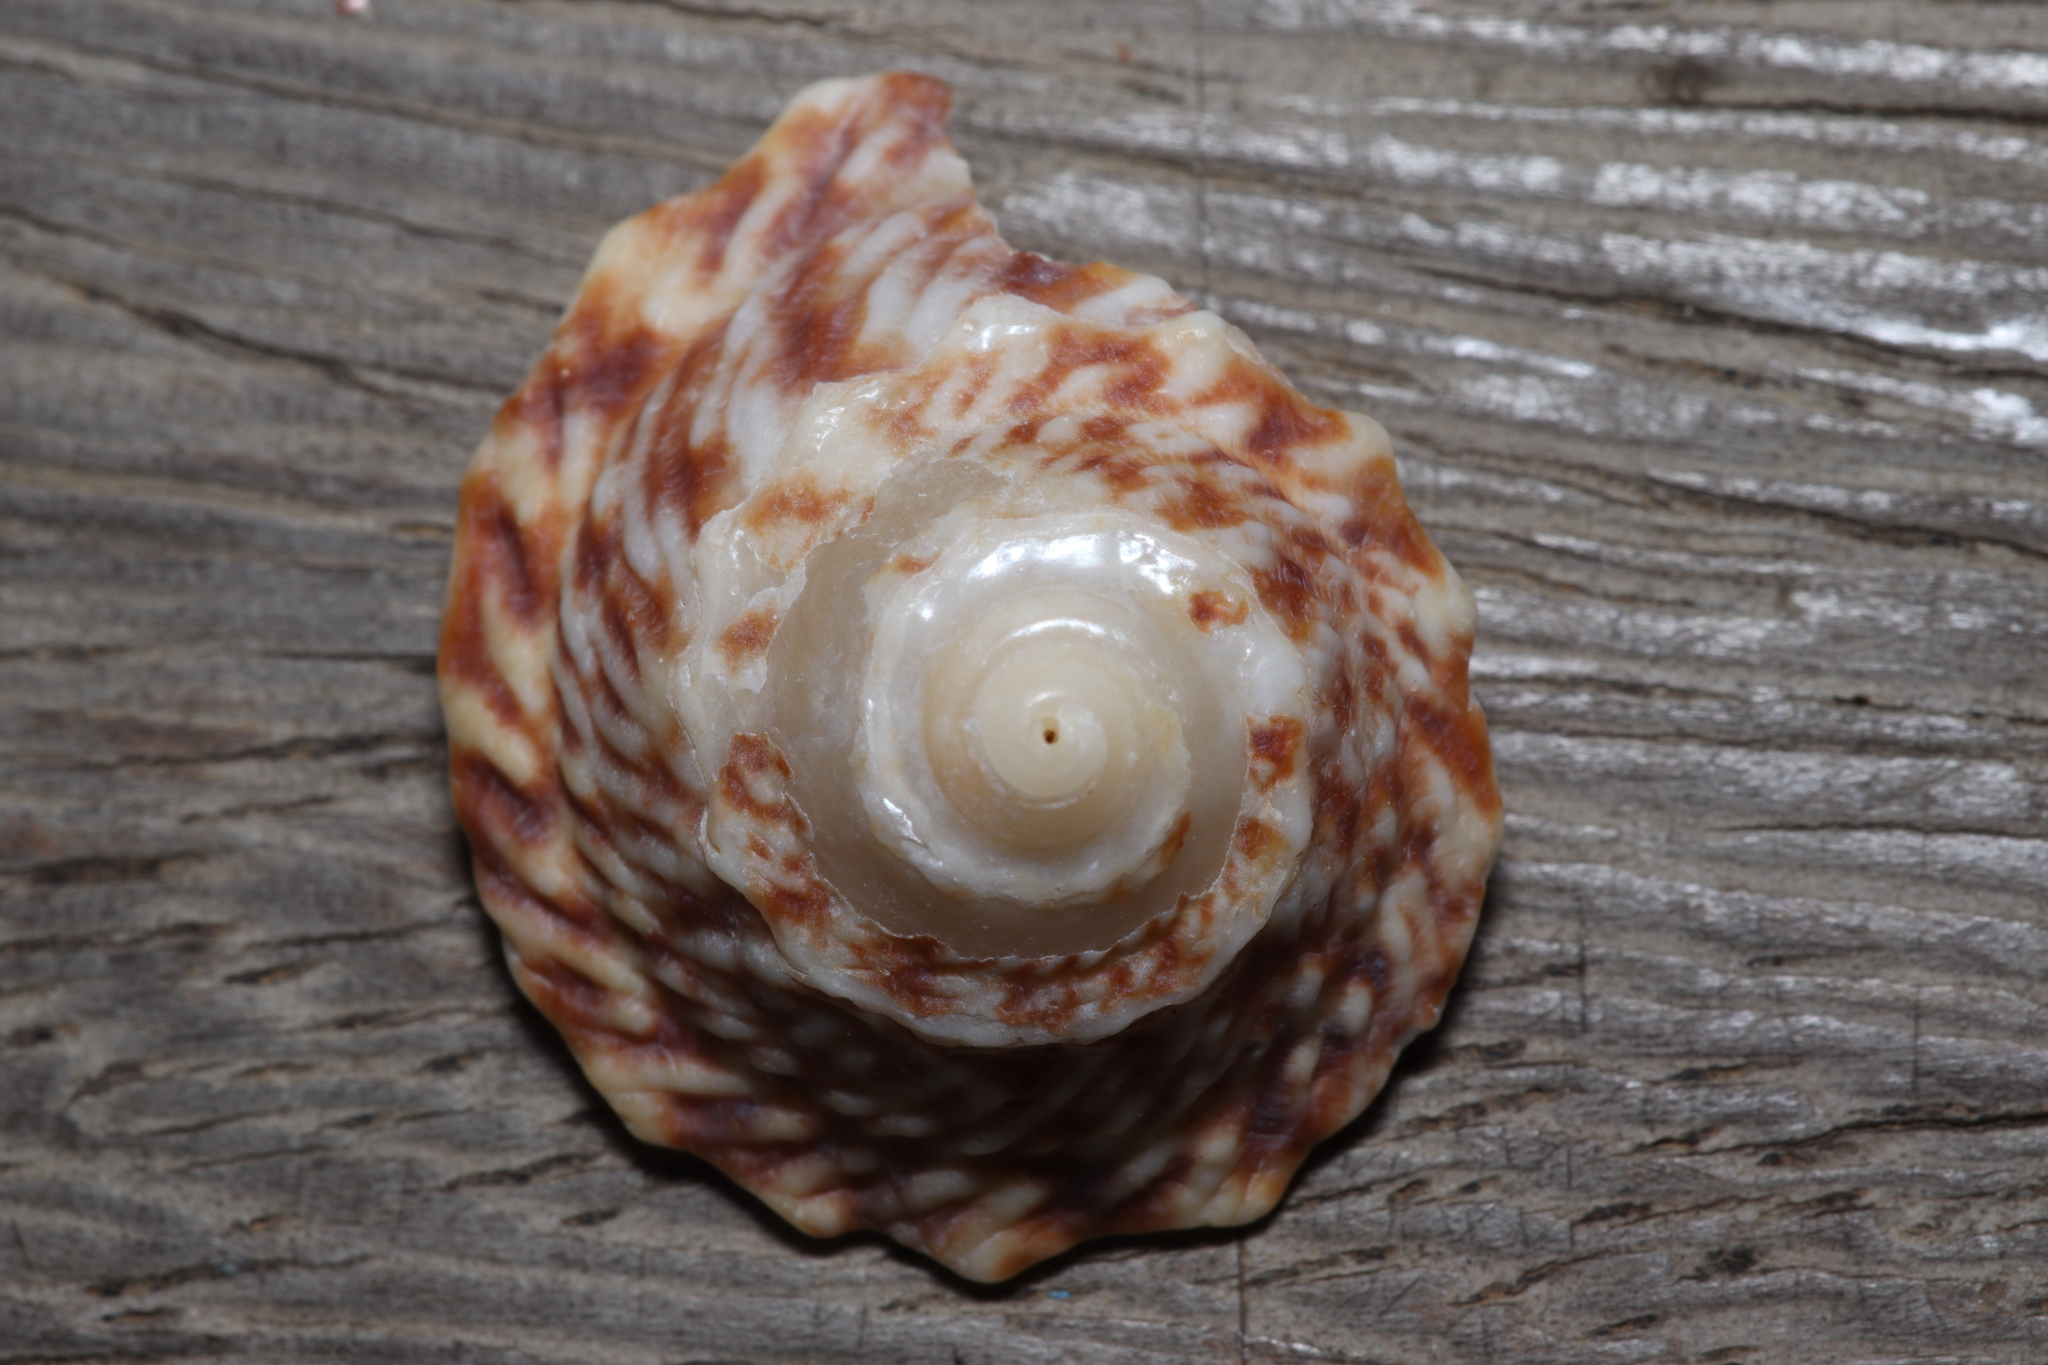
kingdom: Animalia
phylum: Mollusca
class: Gastropoda
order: Trochida
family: Turbinidae
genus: Astralium
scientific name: Astralium latispina
